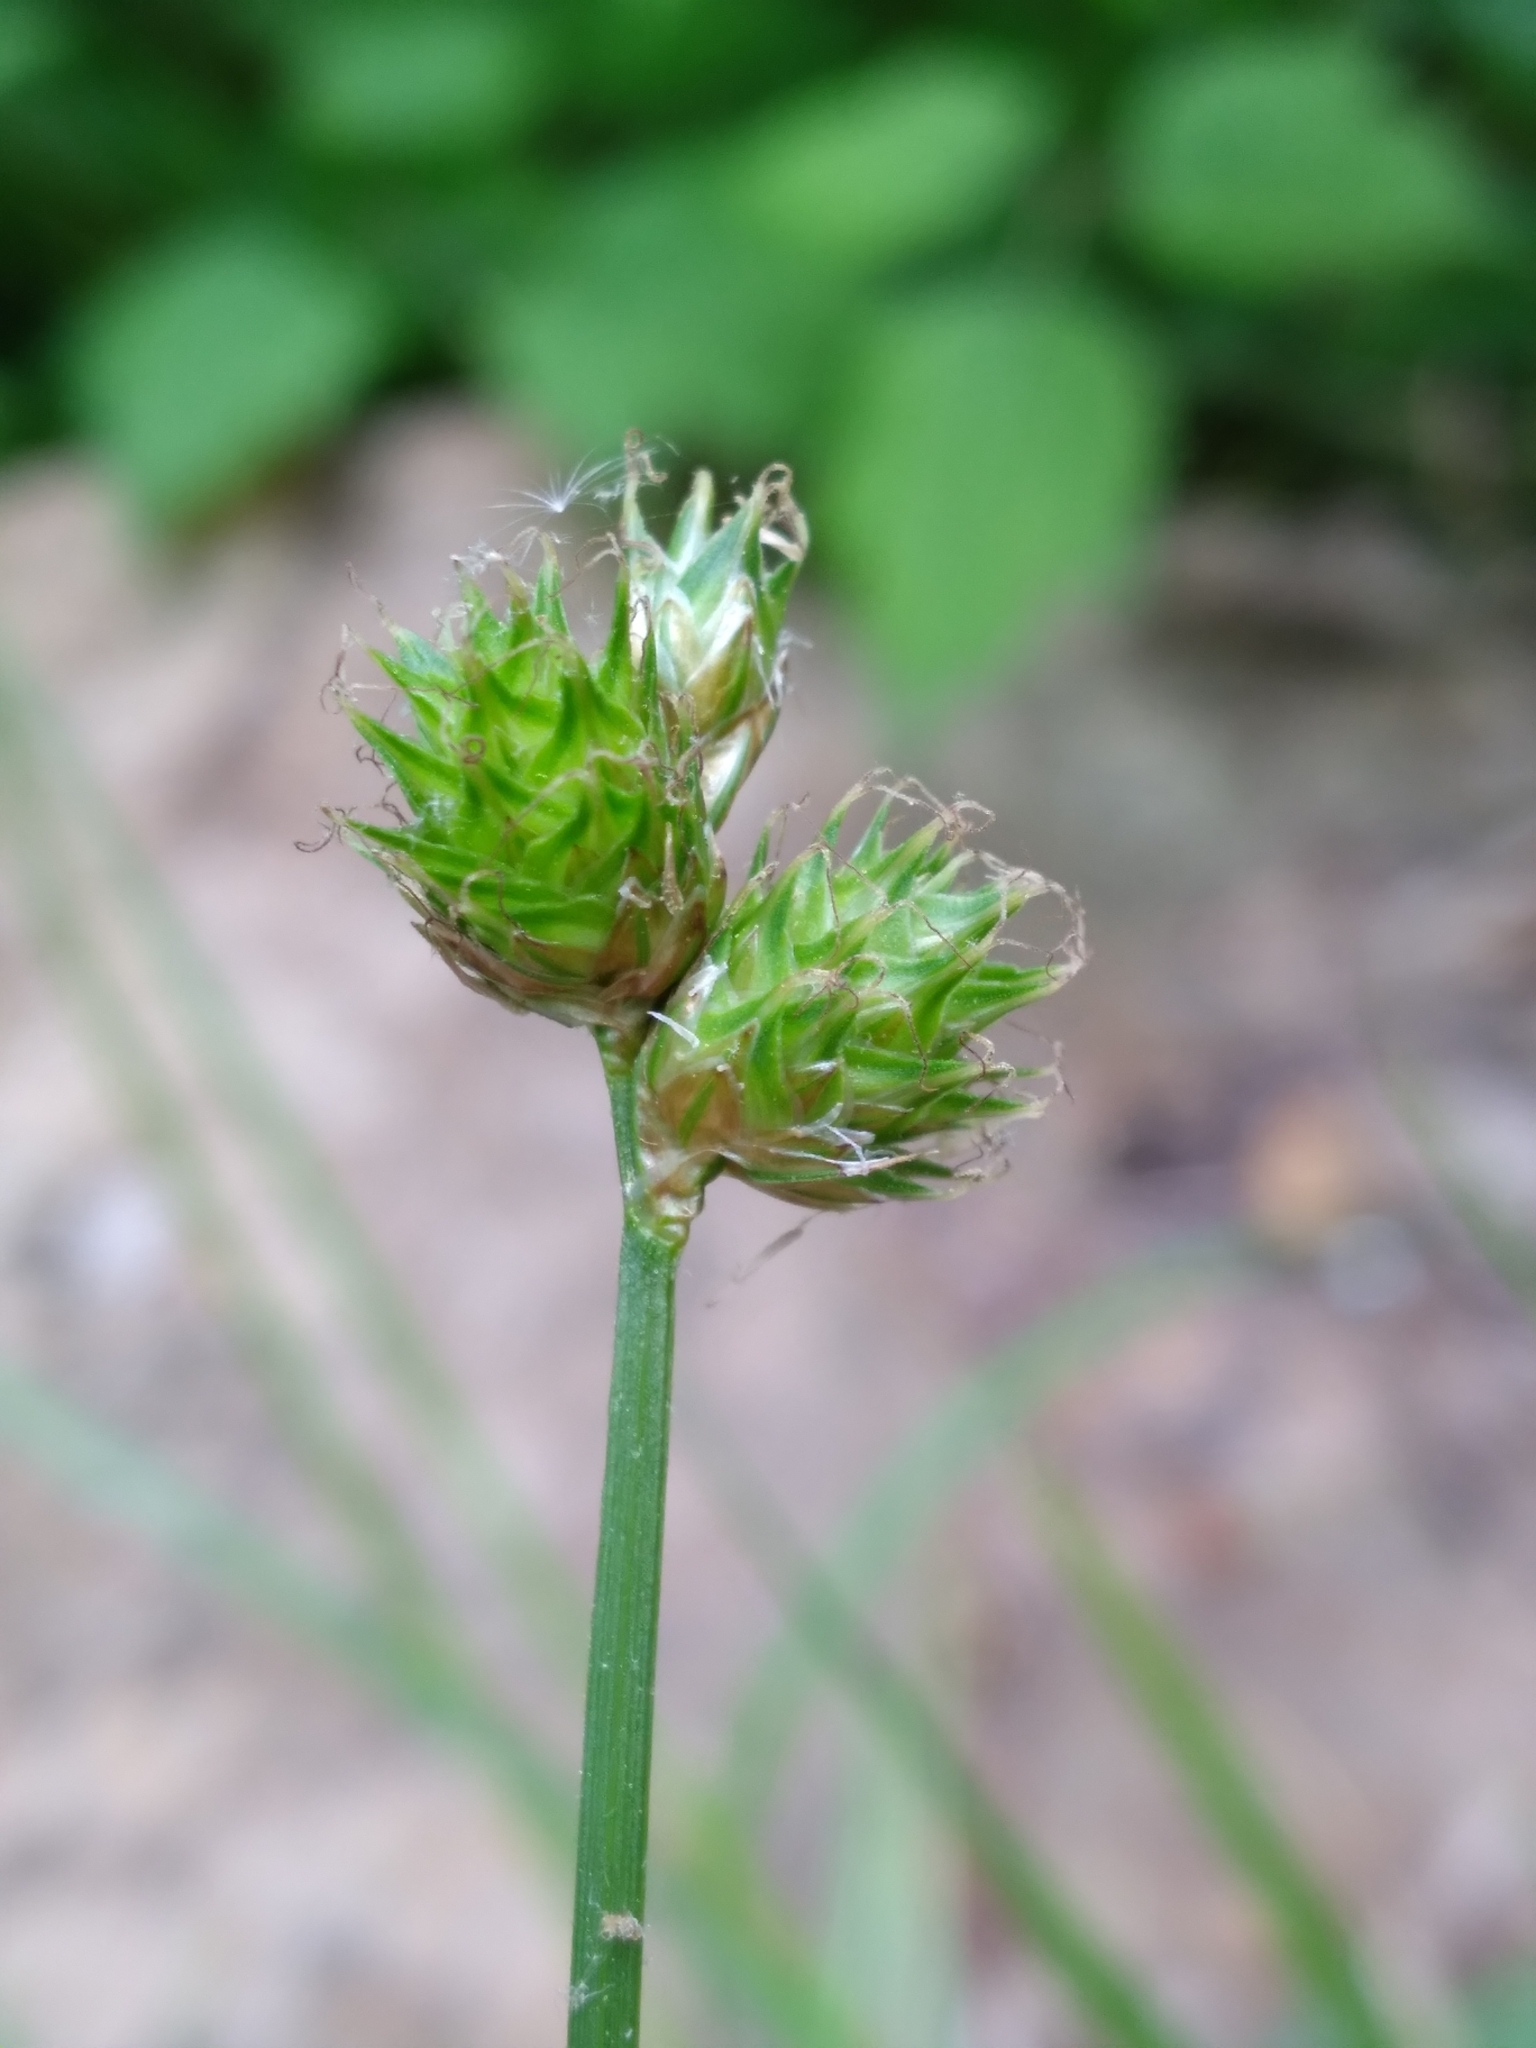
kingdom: Plantae
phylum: Tracheophyta
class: Liliopsida
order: Poales
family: Cyperaceae
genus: Carex
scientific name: Carex molesta
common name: Troublesome sedge
